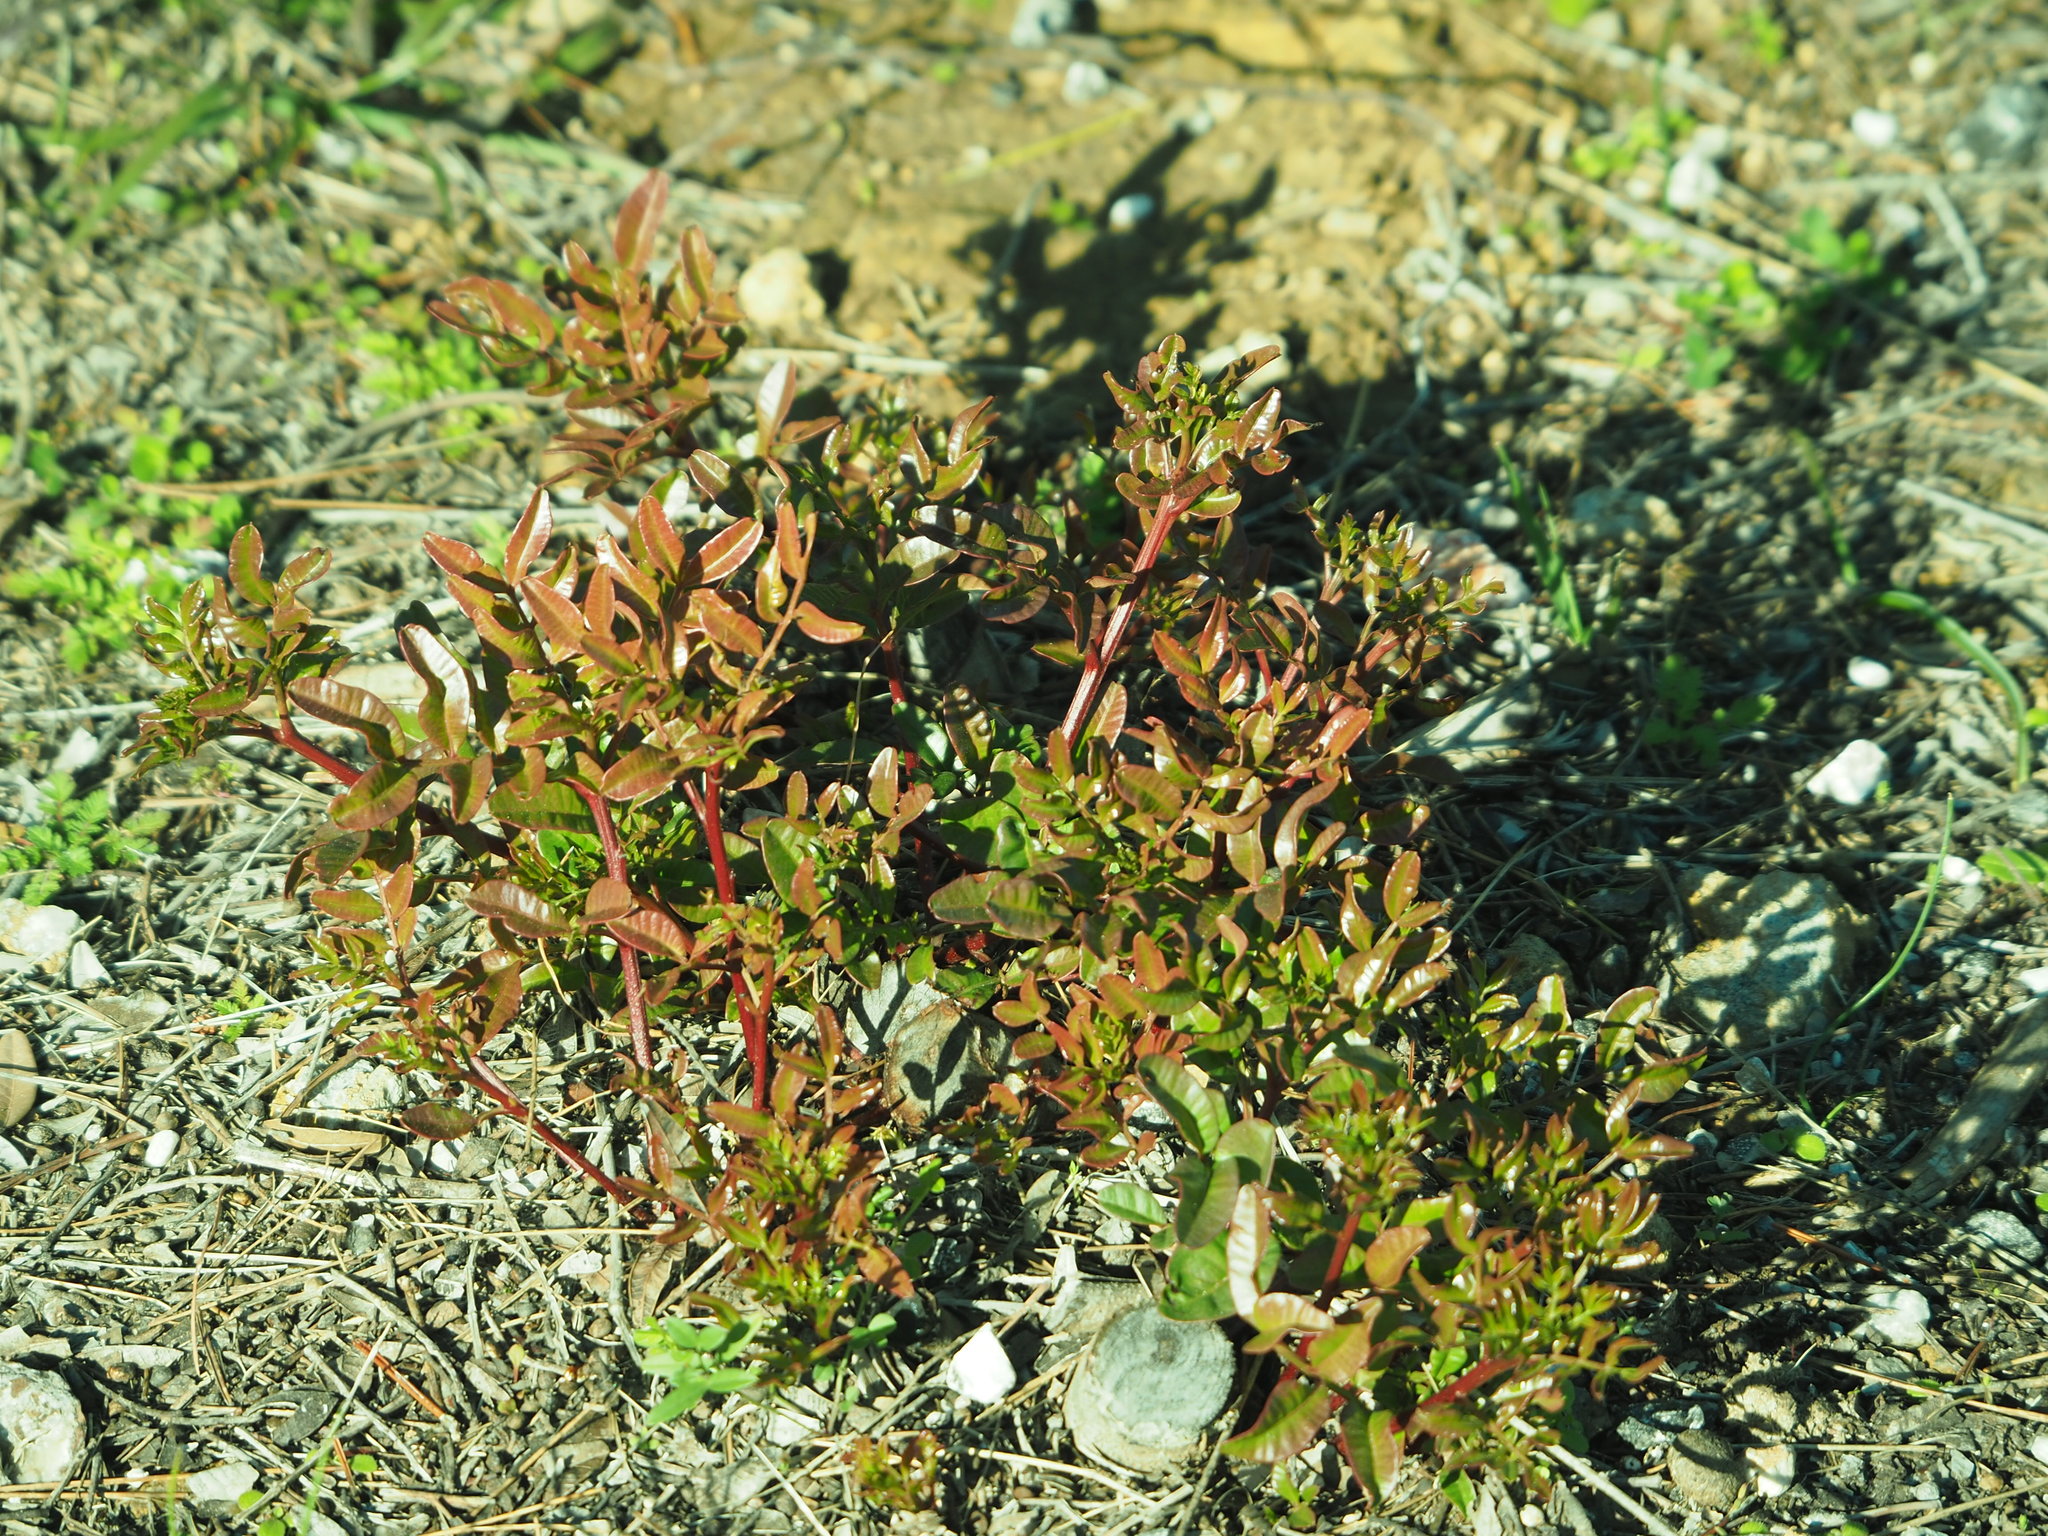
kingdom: Plantae
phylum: Tracheophyta
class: Magnoliopsida
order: Sapindales
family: Anacardiaceae
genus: Pistacia
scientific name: Pistacia lentiscus
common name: Lentisk
